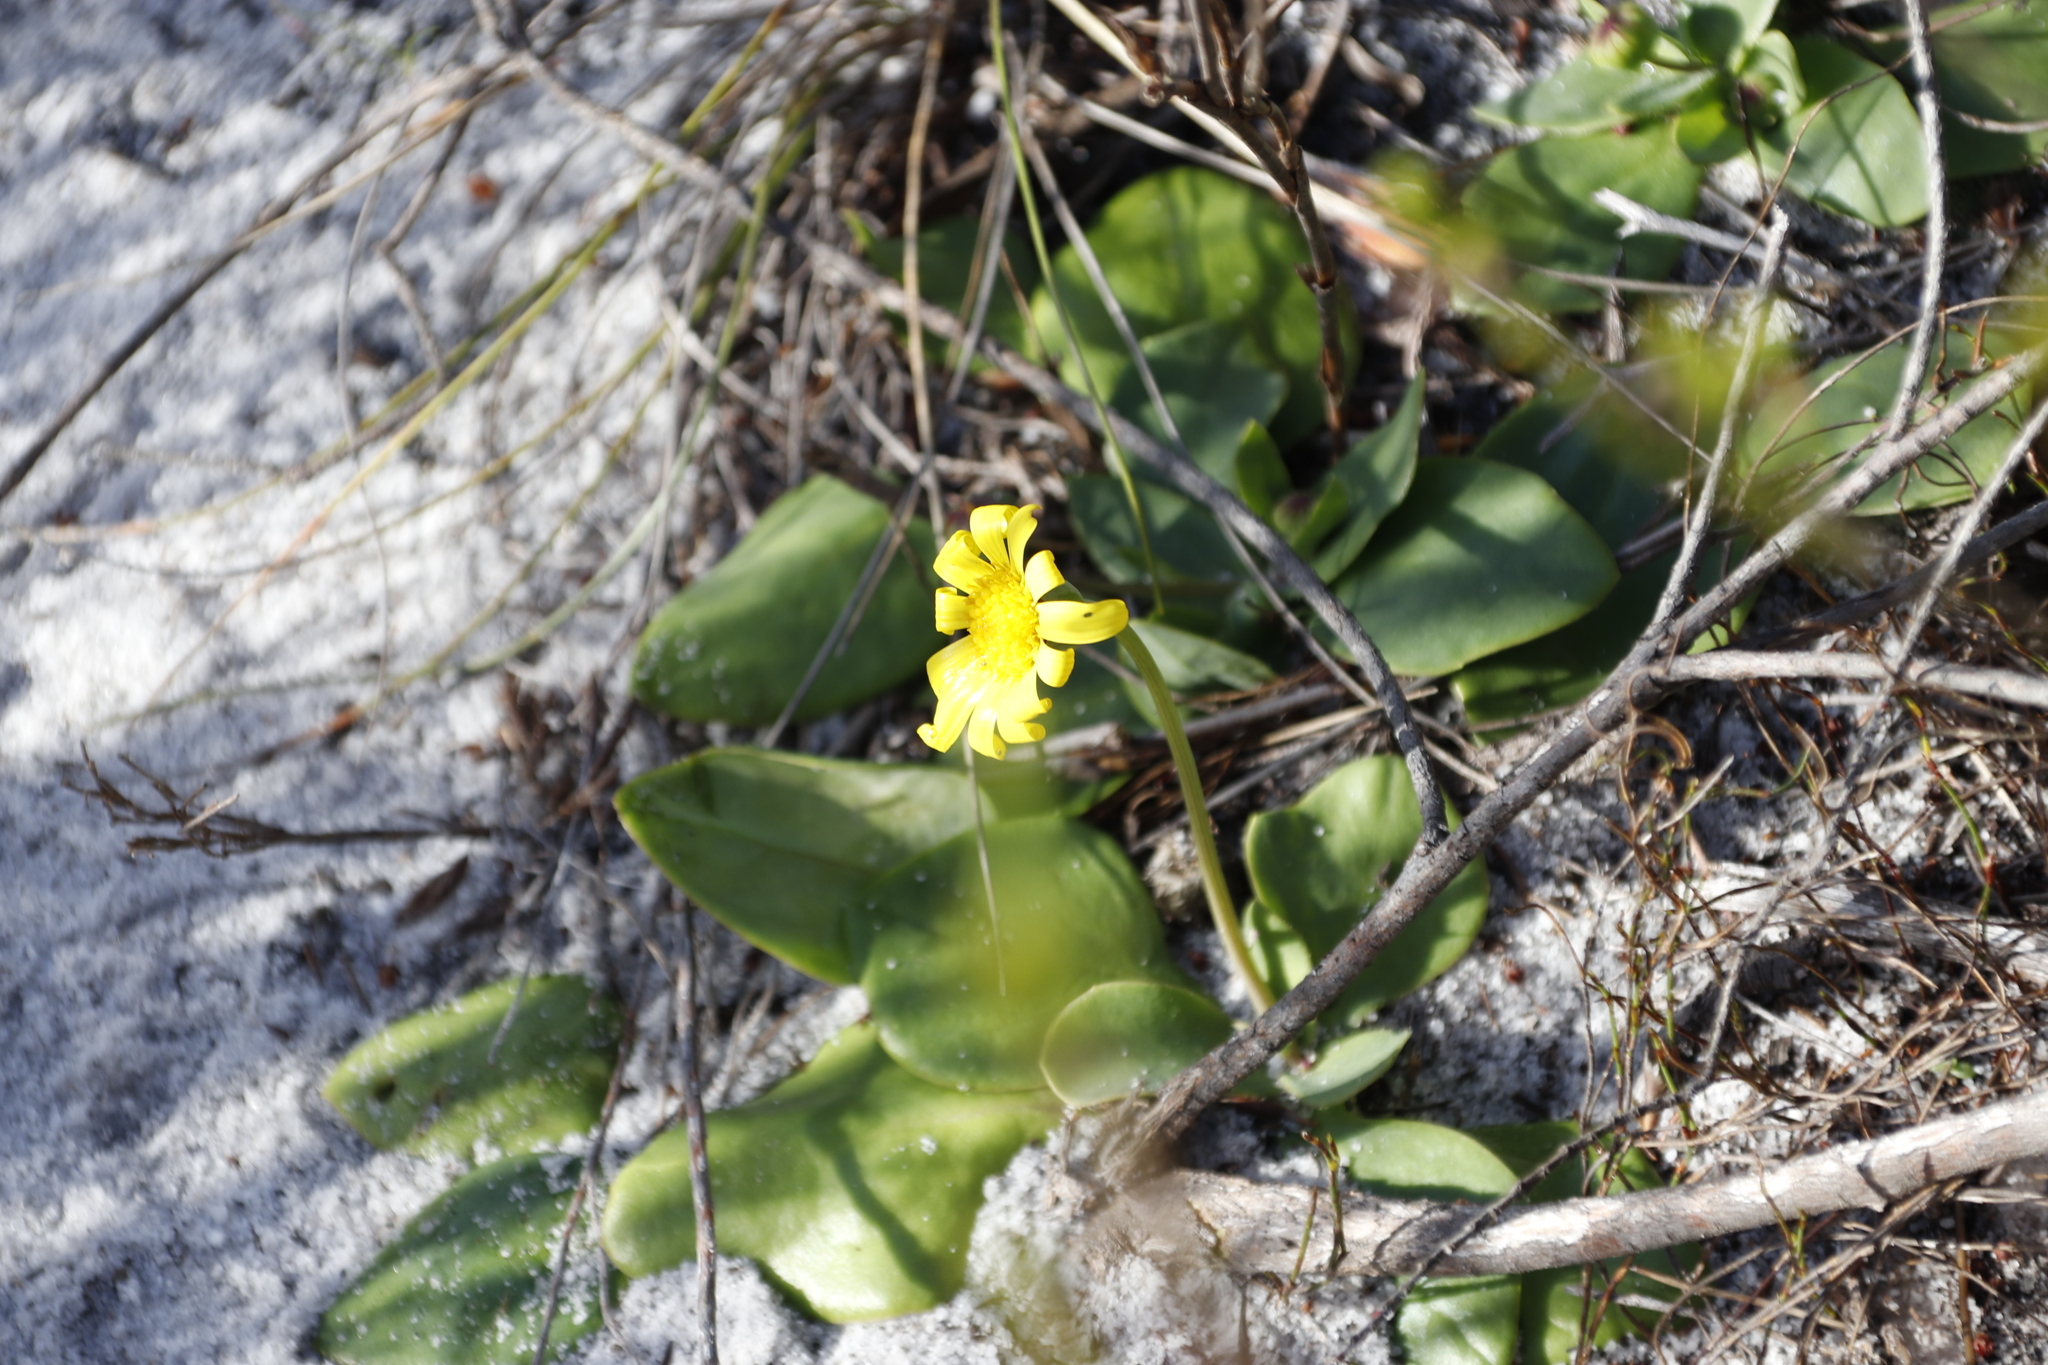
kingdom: Plantae
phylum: Tracheophyta
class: Magnoliopsida
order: Asterales
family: Asteraceae
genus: Othonna
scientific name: Othonna bulbosa
